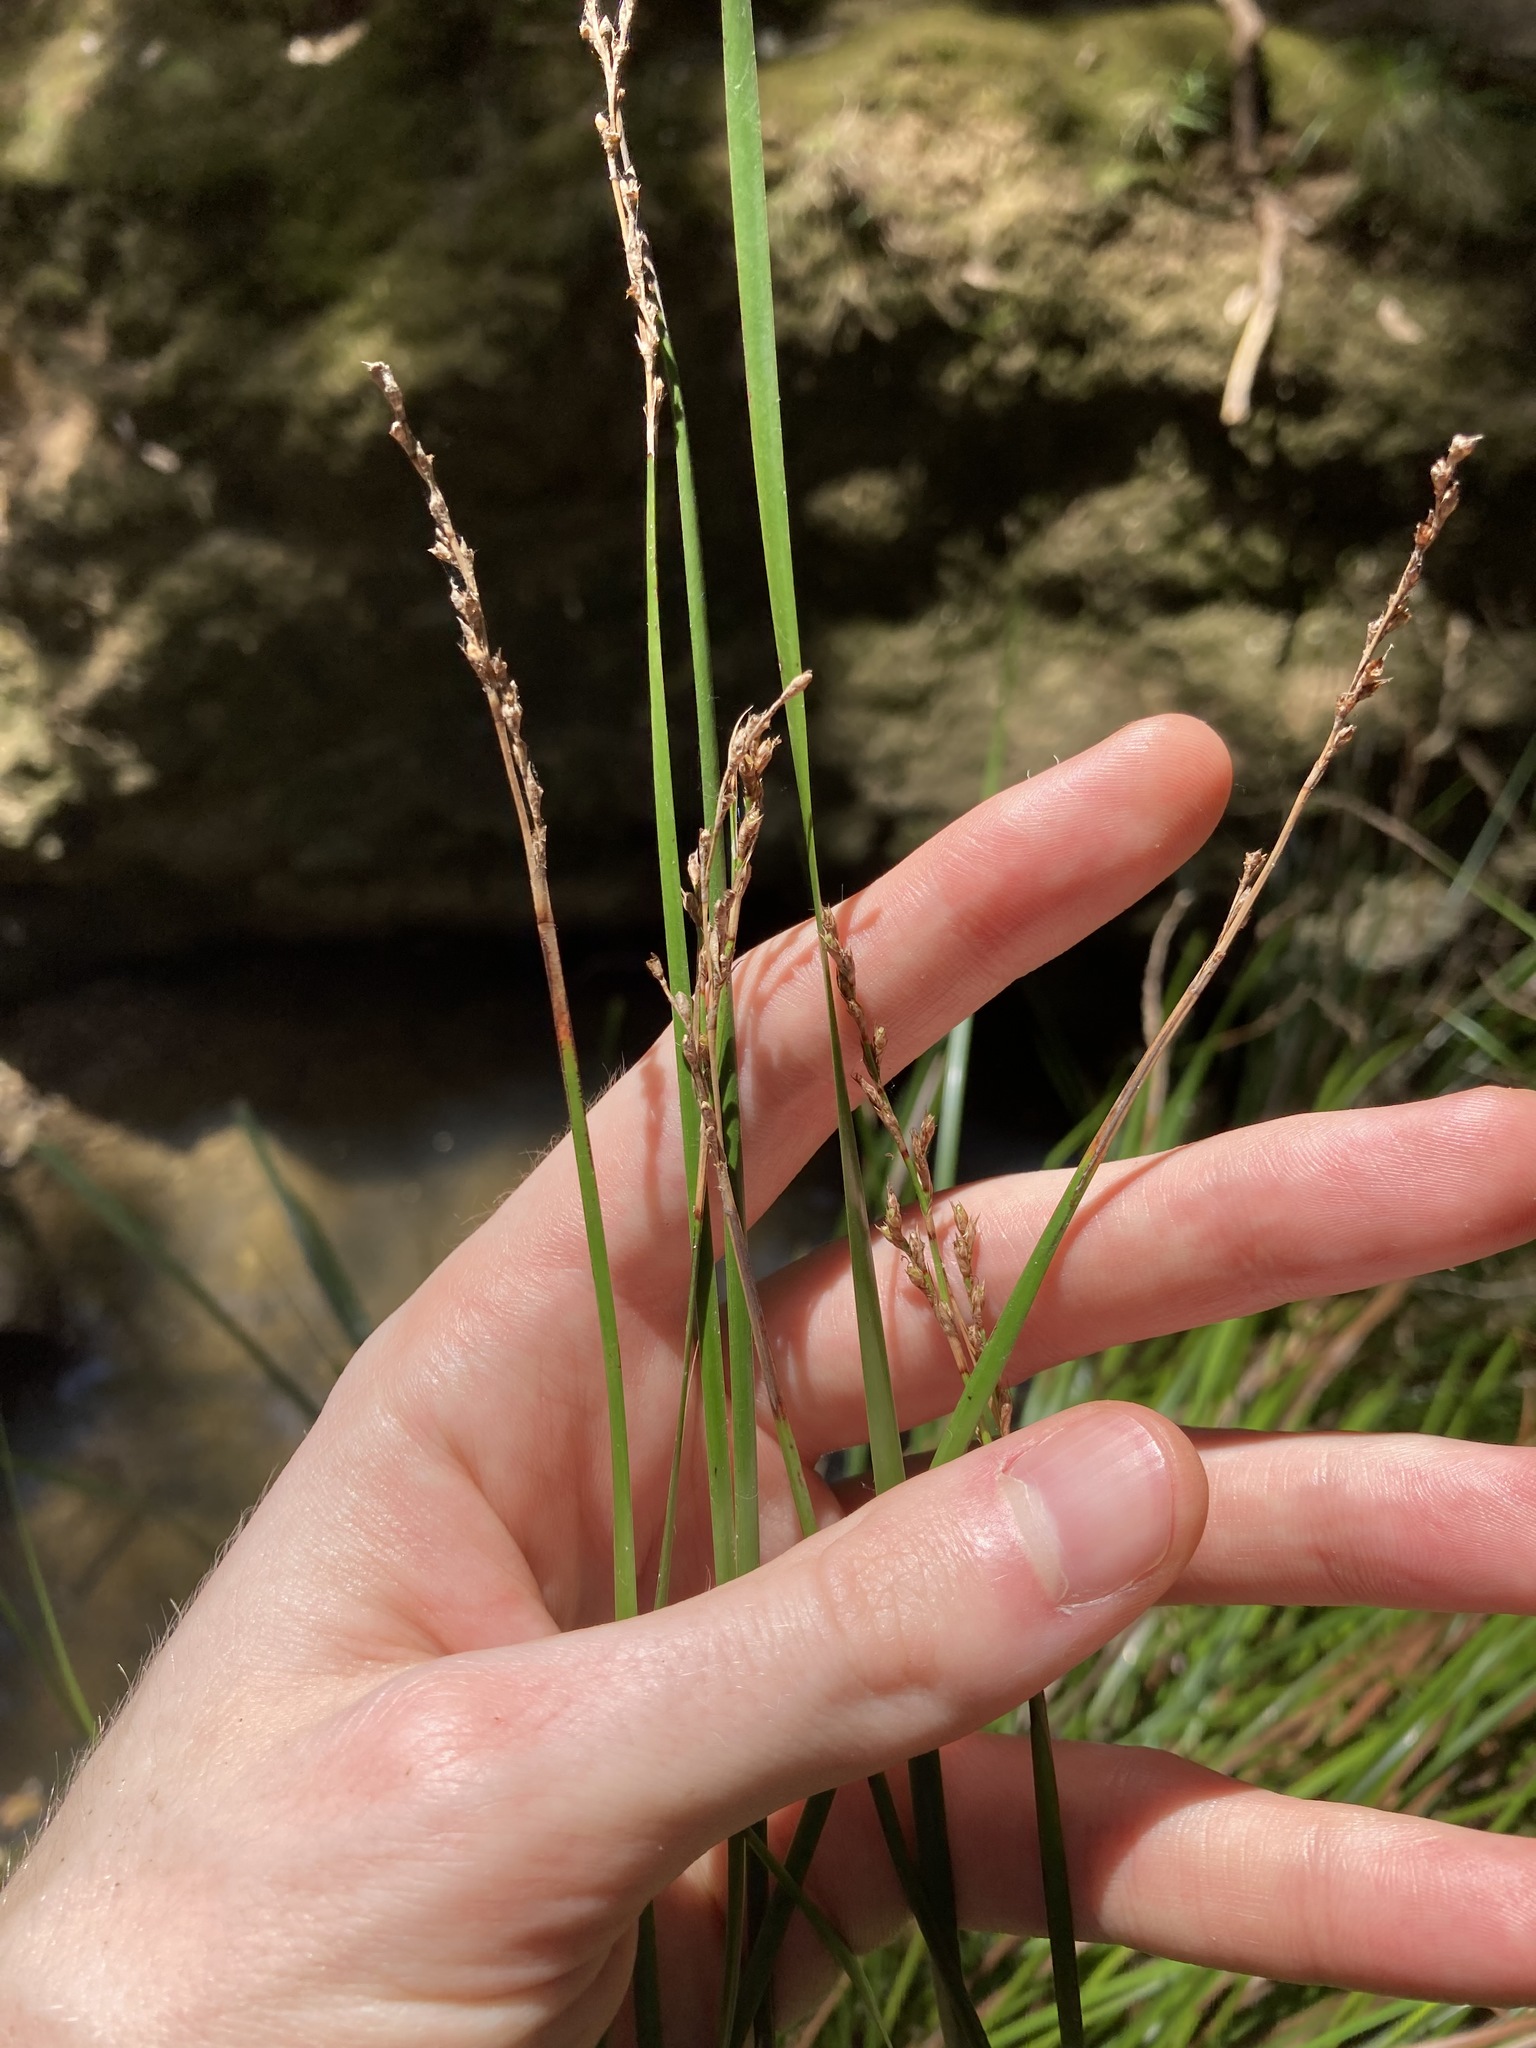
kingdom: Plantae
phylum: Tracheophyta
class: Liliopsida
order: Poales
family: Cyperaceae
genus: Lepidosperma
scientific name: Lepidosperma laterale
